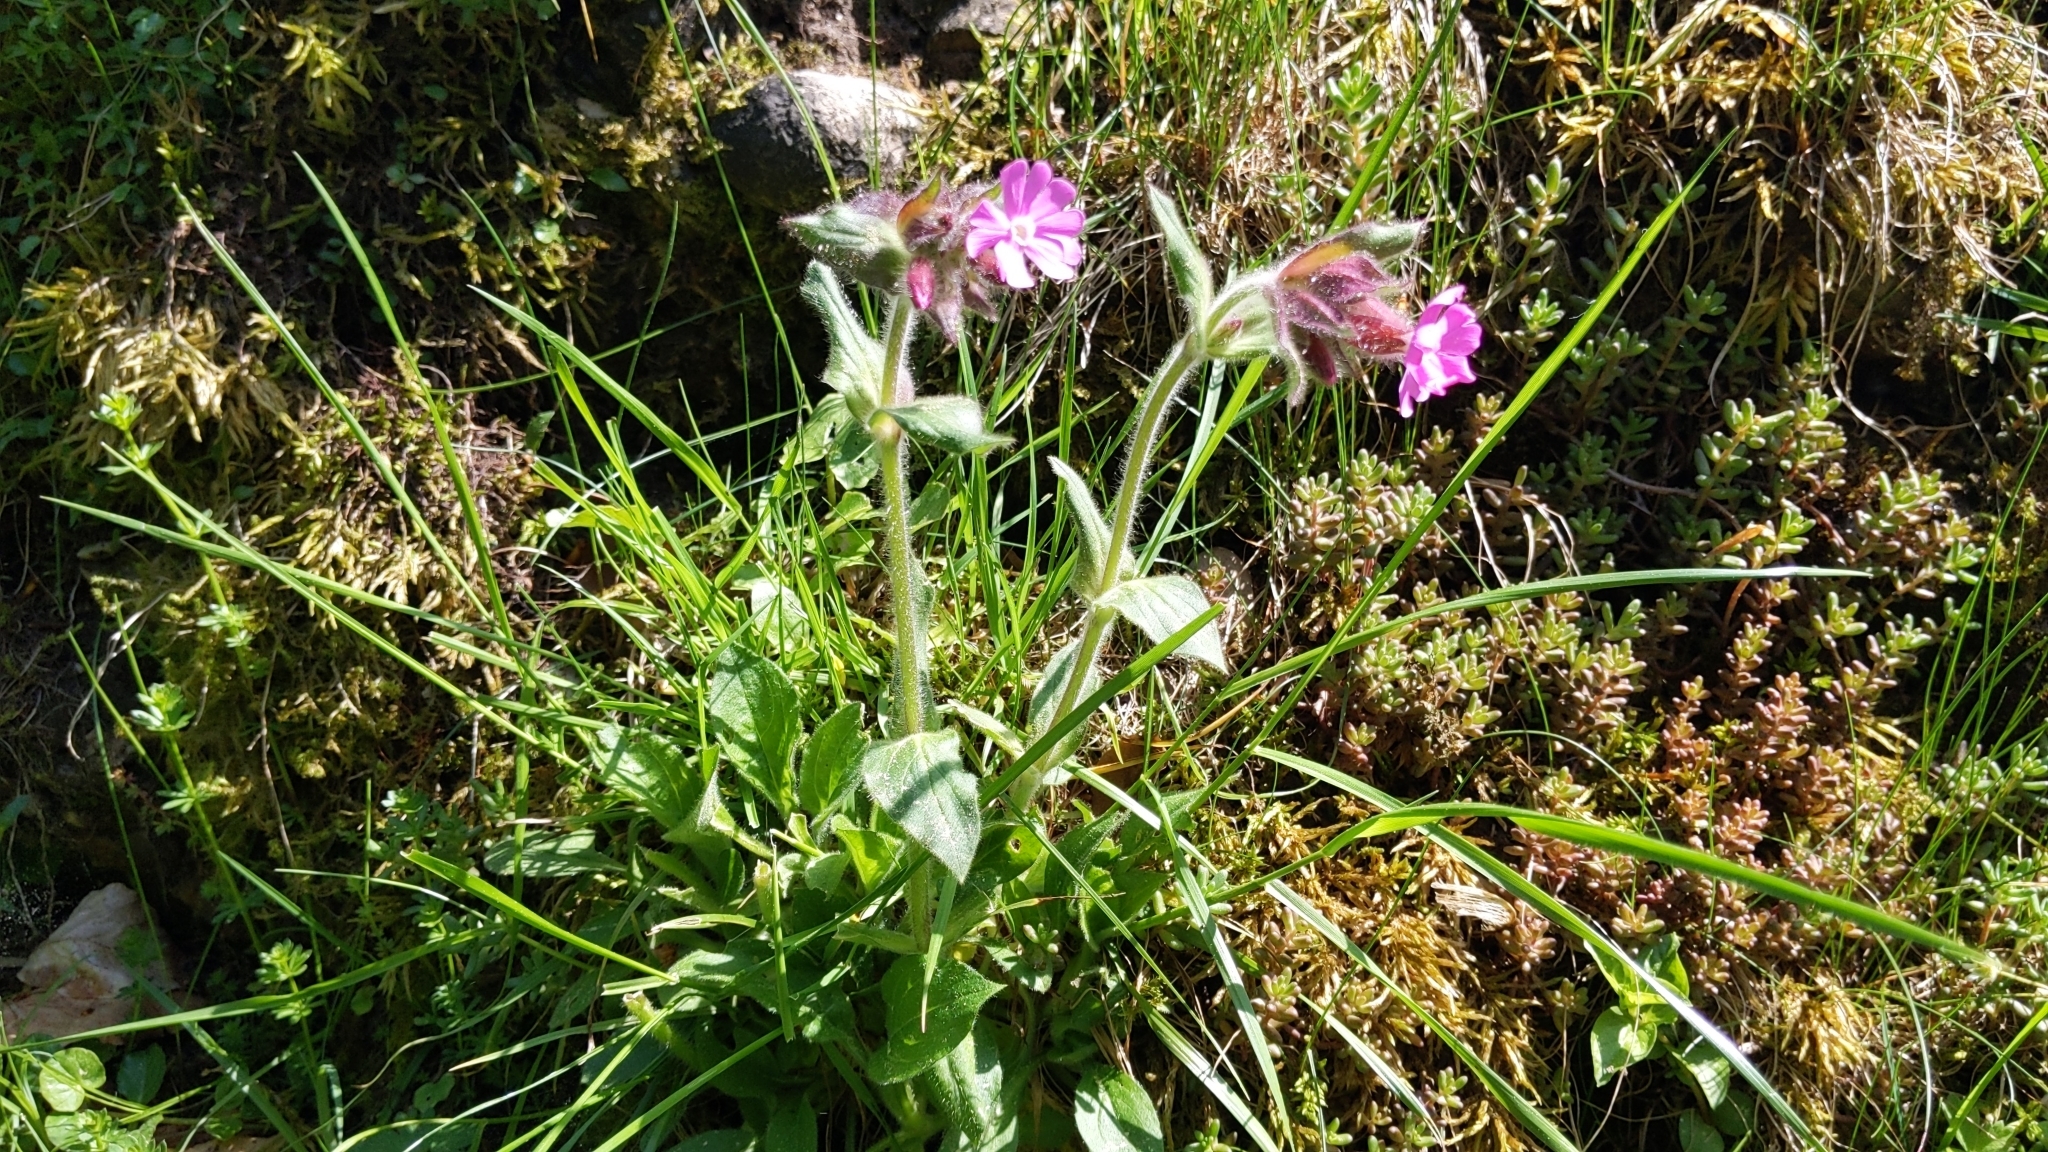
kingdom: Plantae
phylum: Tracheophyta
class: Magnoliopsida
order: Caryophyllales
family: Caryophyllaceae
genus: Silene
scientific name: Silene dioica
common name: Red campion
